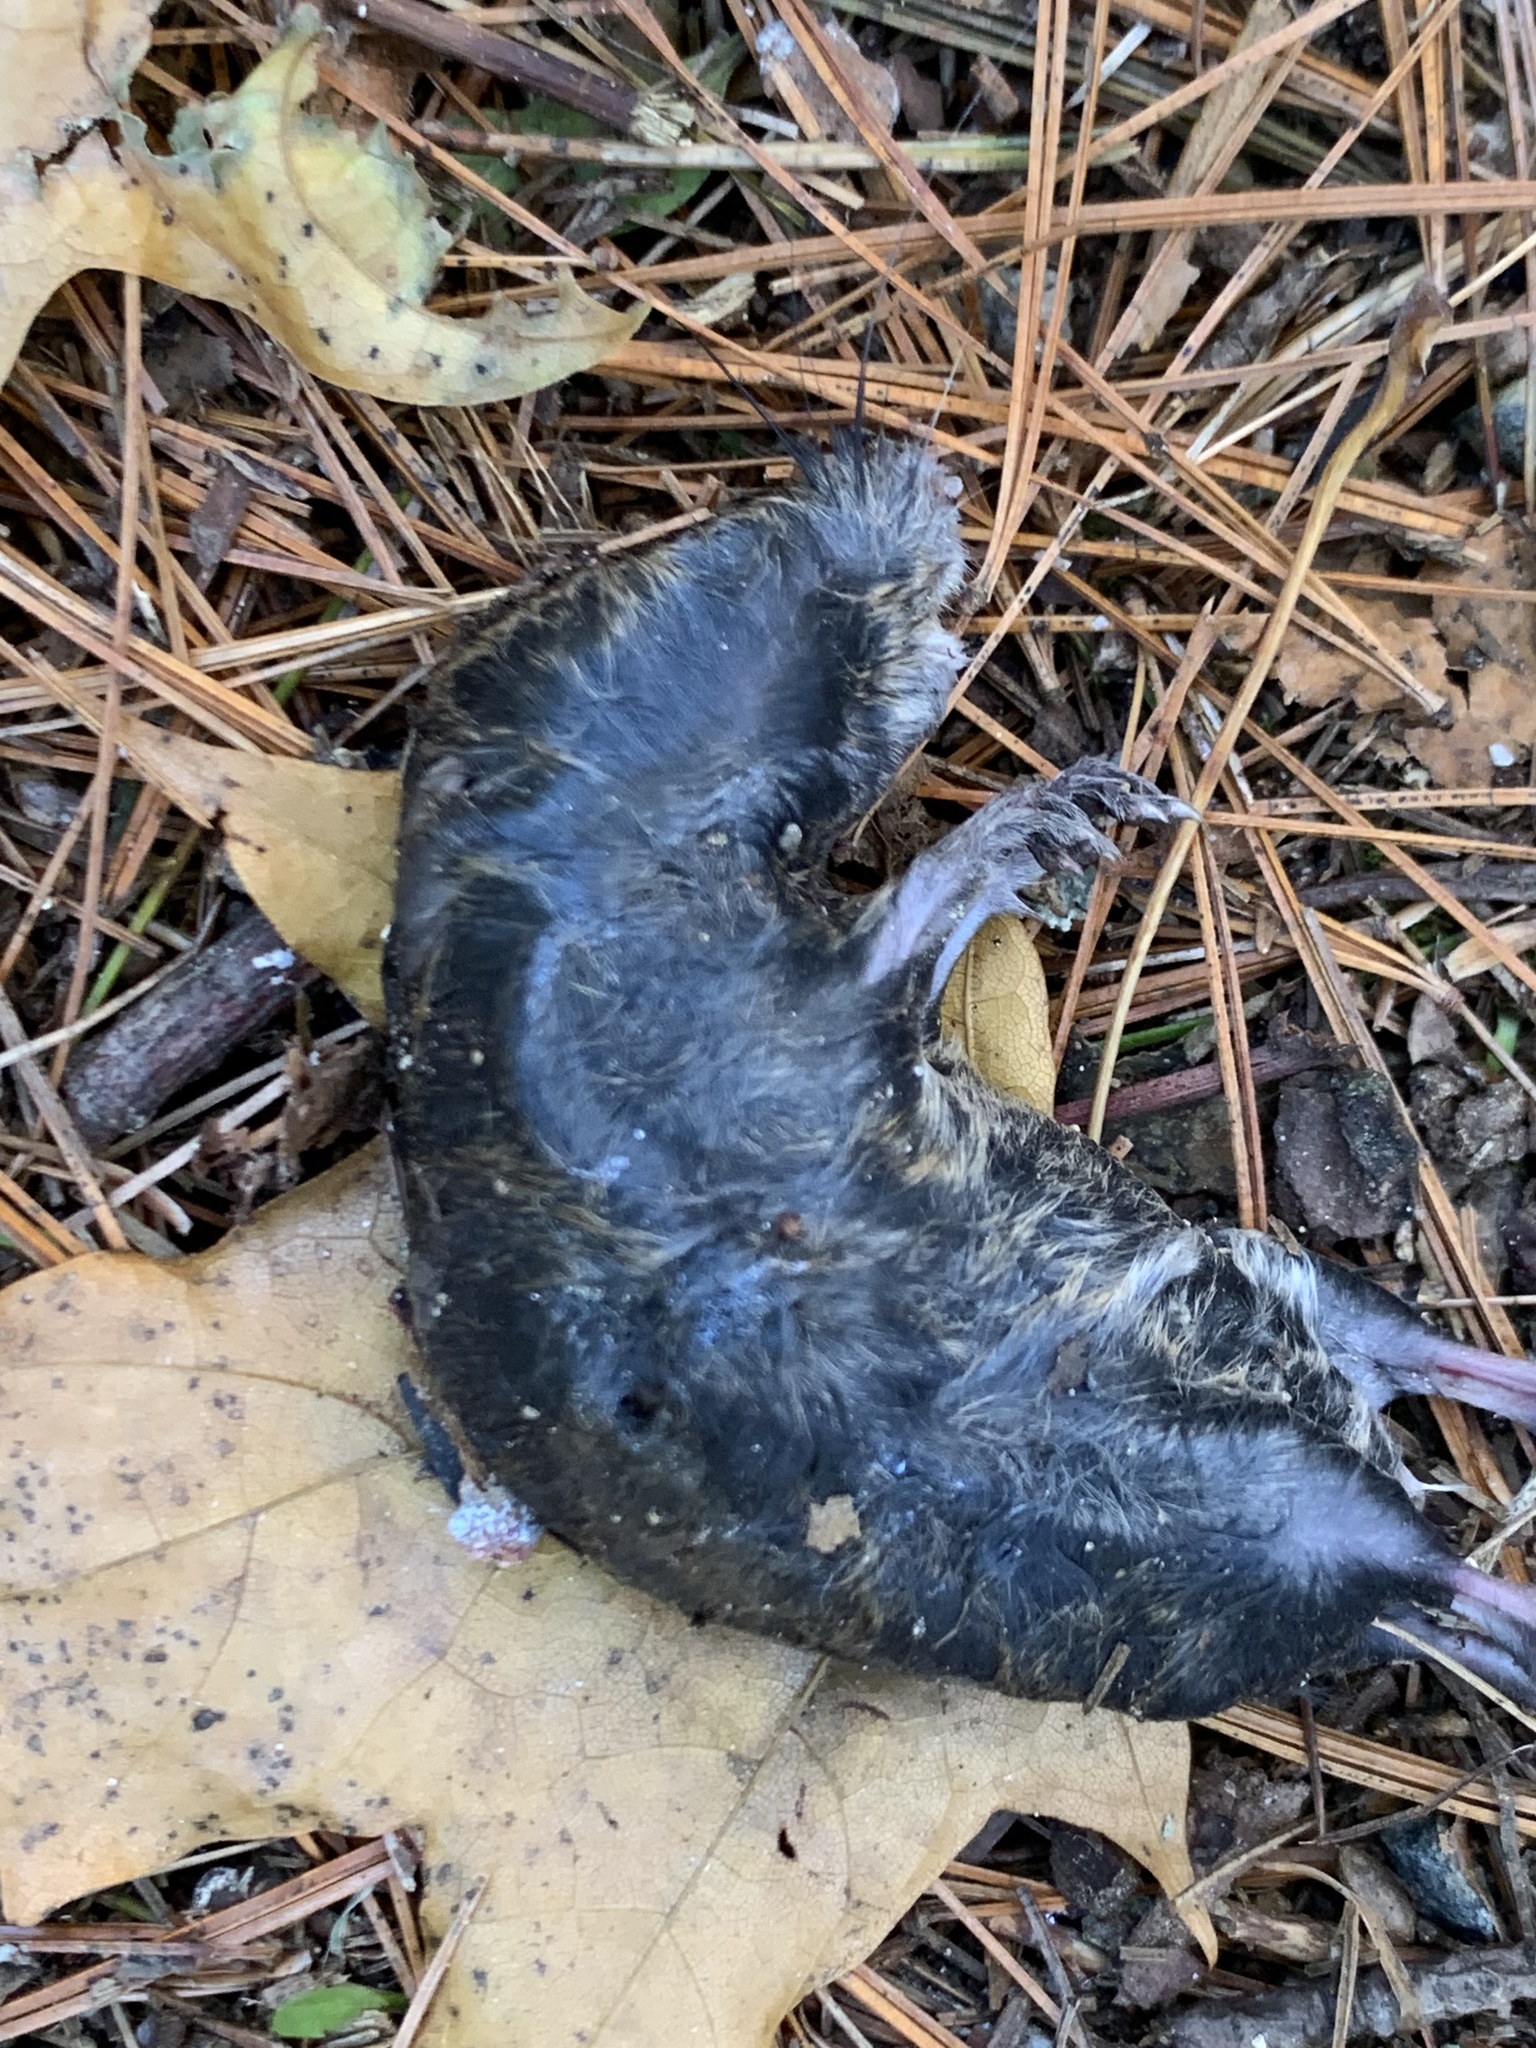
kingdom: Animalia
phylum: Chordata
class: Mammalia
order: Rodentia
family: Cricetidae
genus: Microtus
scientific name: Microtus pennsylvanicus
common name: Meadow vole
